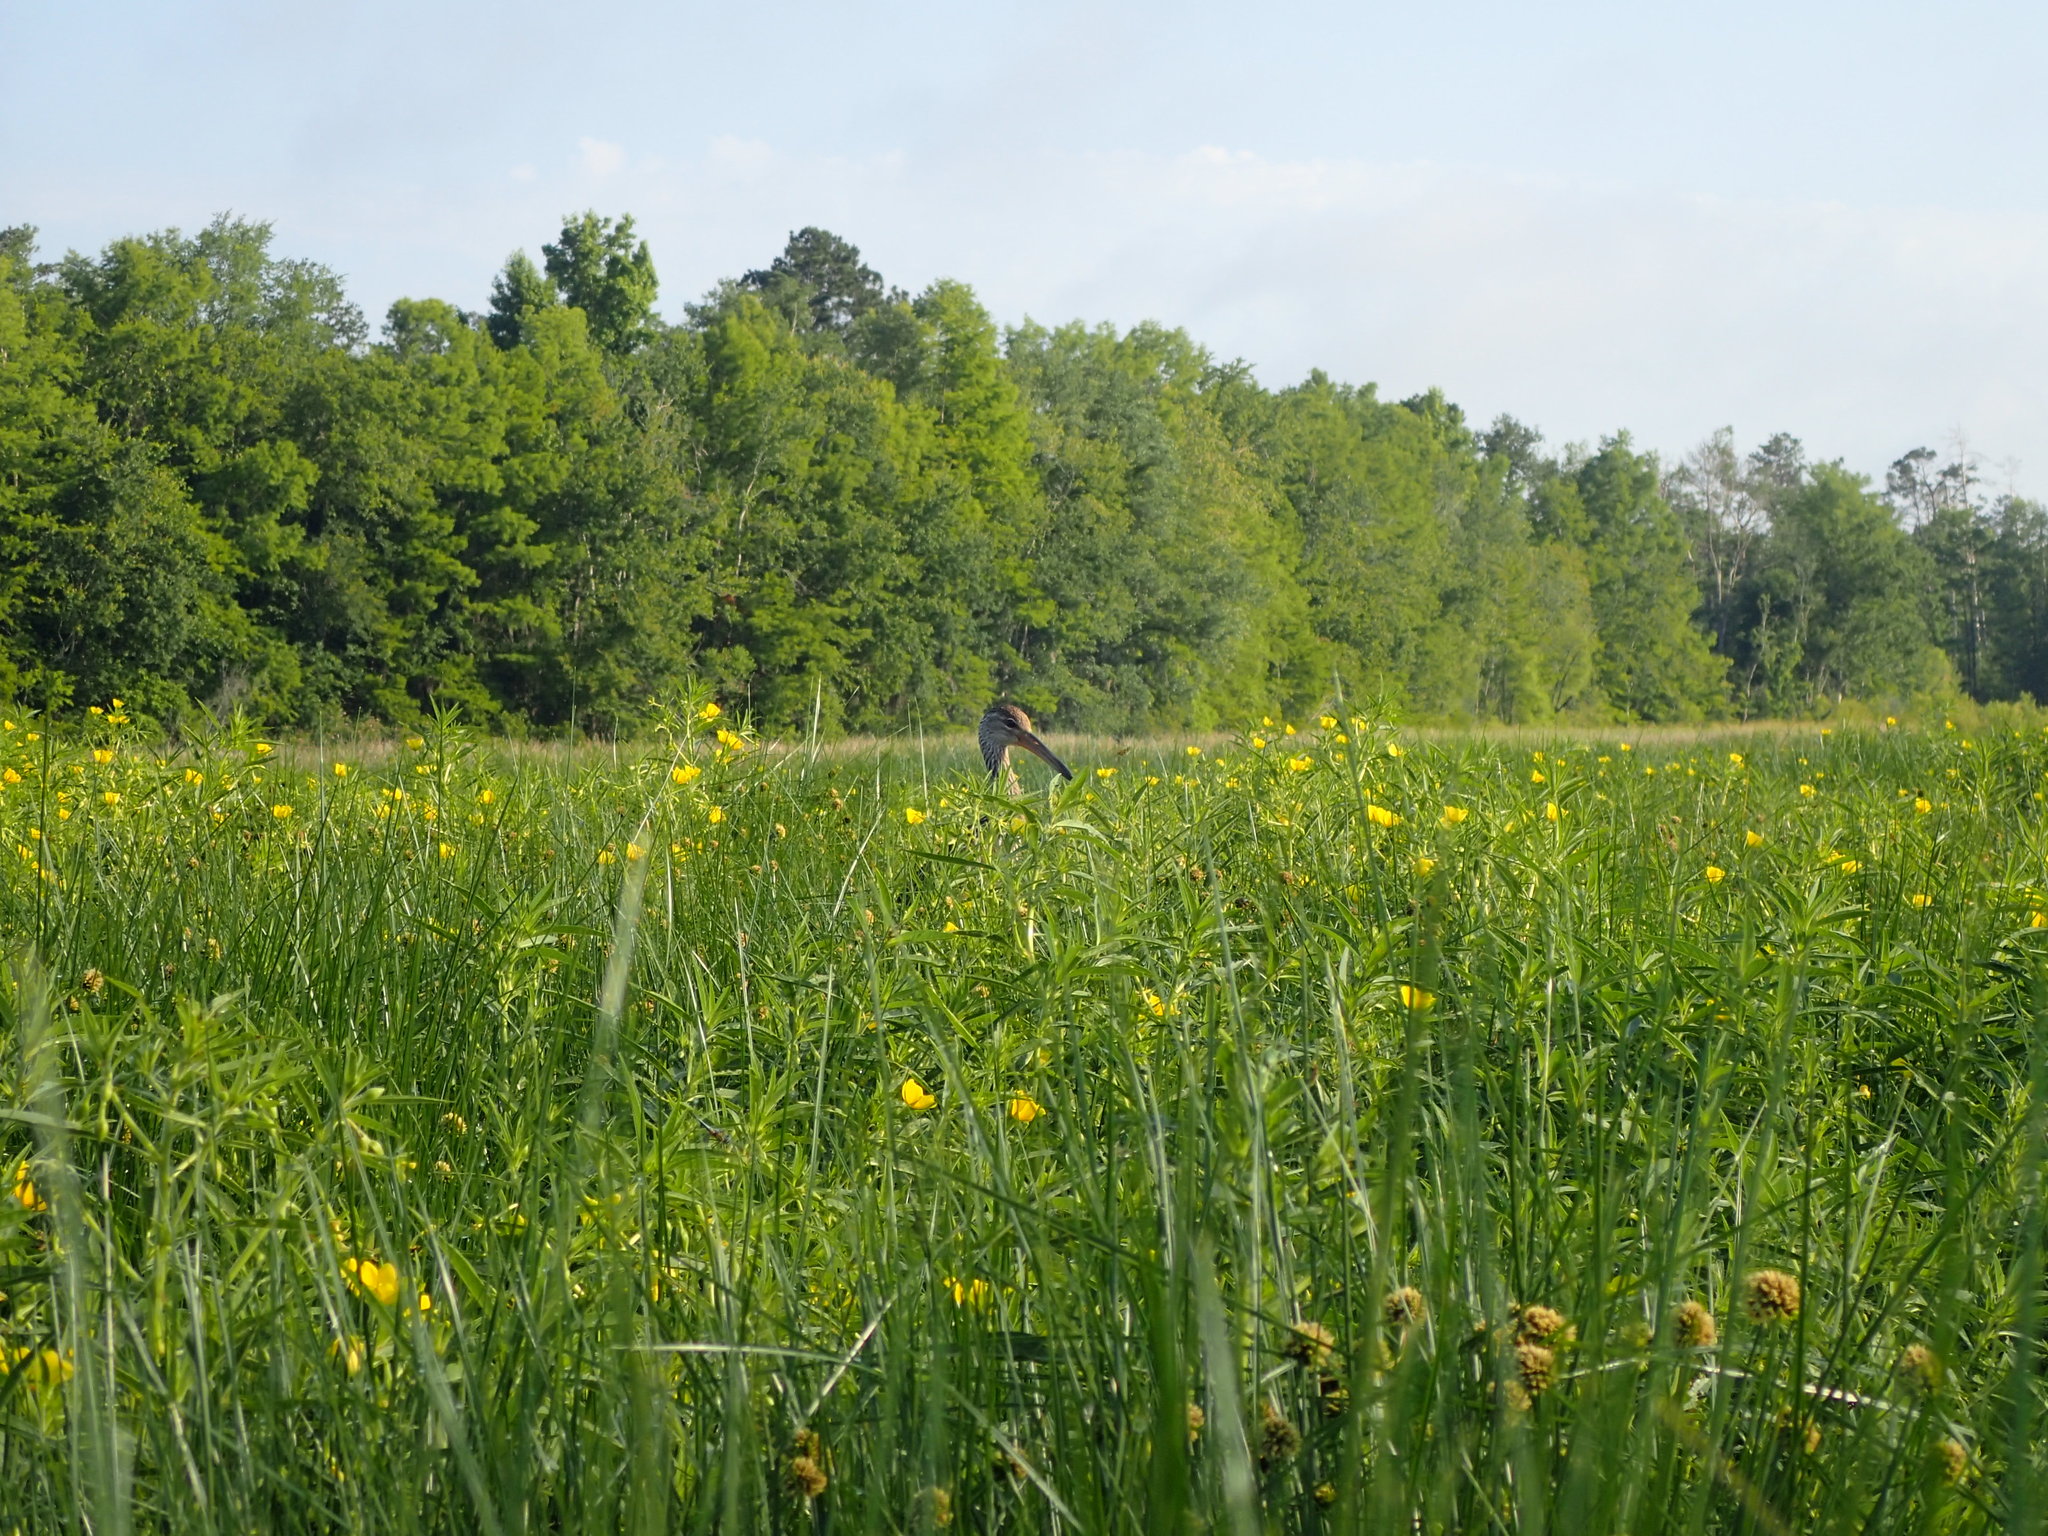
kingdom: Animalia
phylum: Chordata
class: Aves
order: Gruiformes
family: Aramidae
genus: Aramus
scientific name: Aramus guarauna
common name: Limpkin
